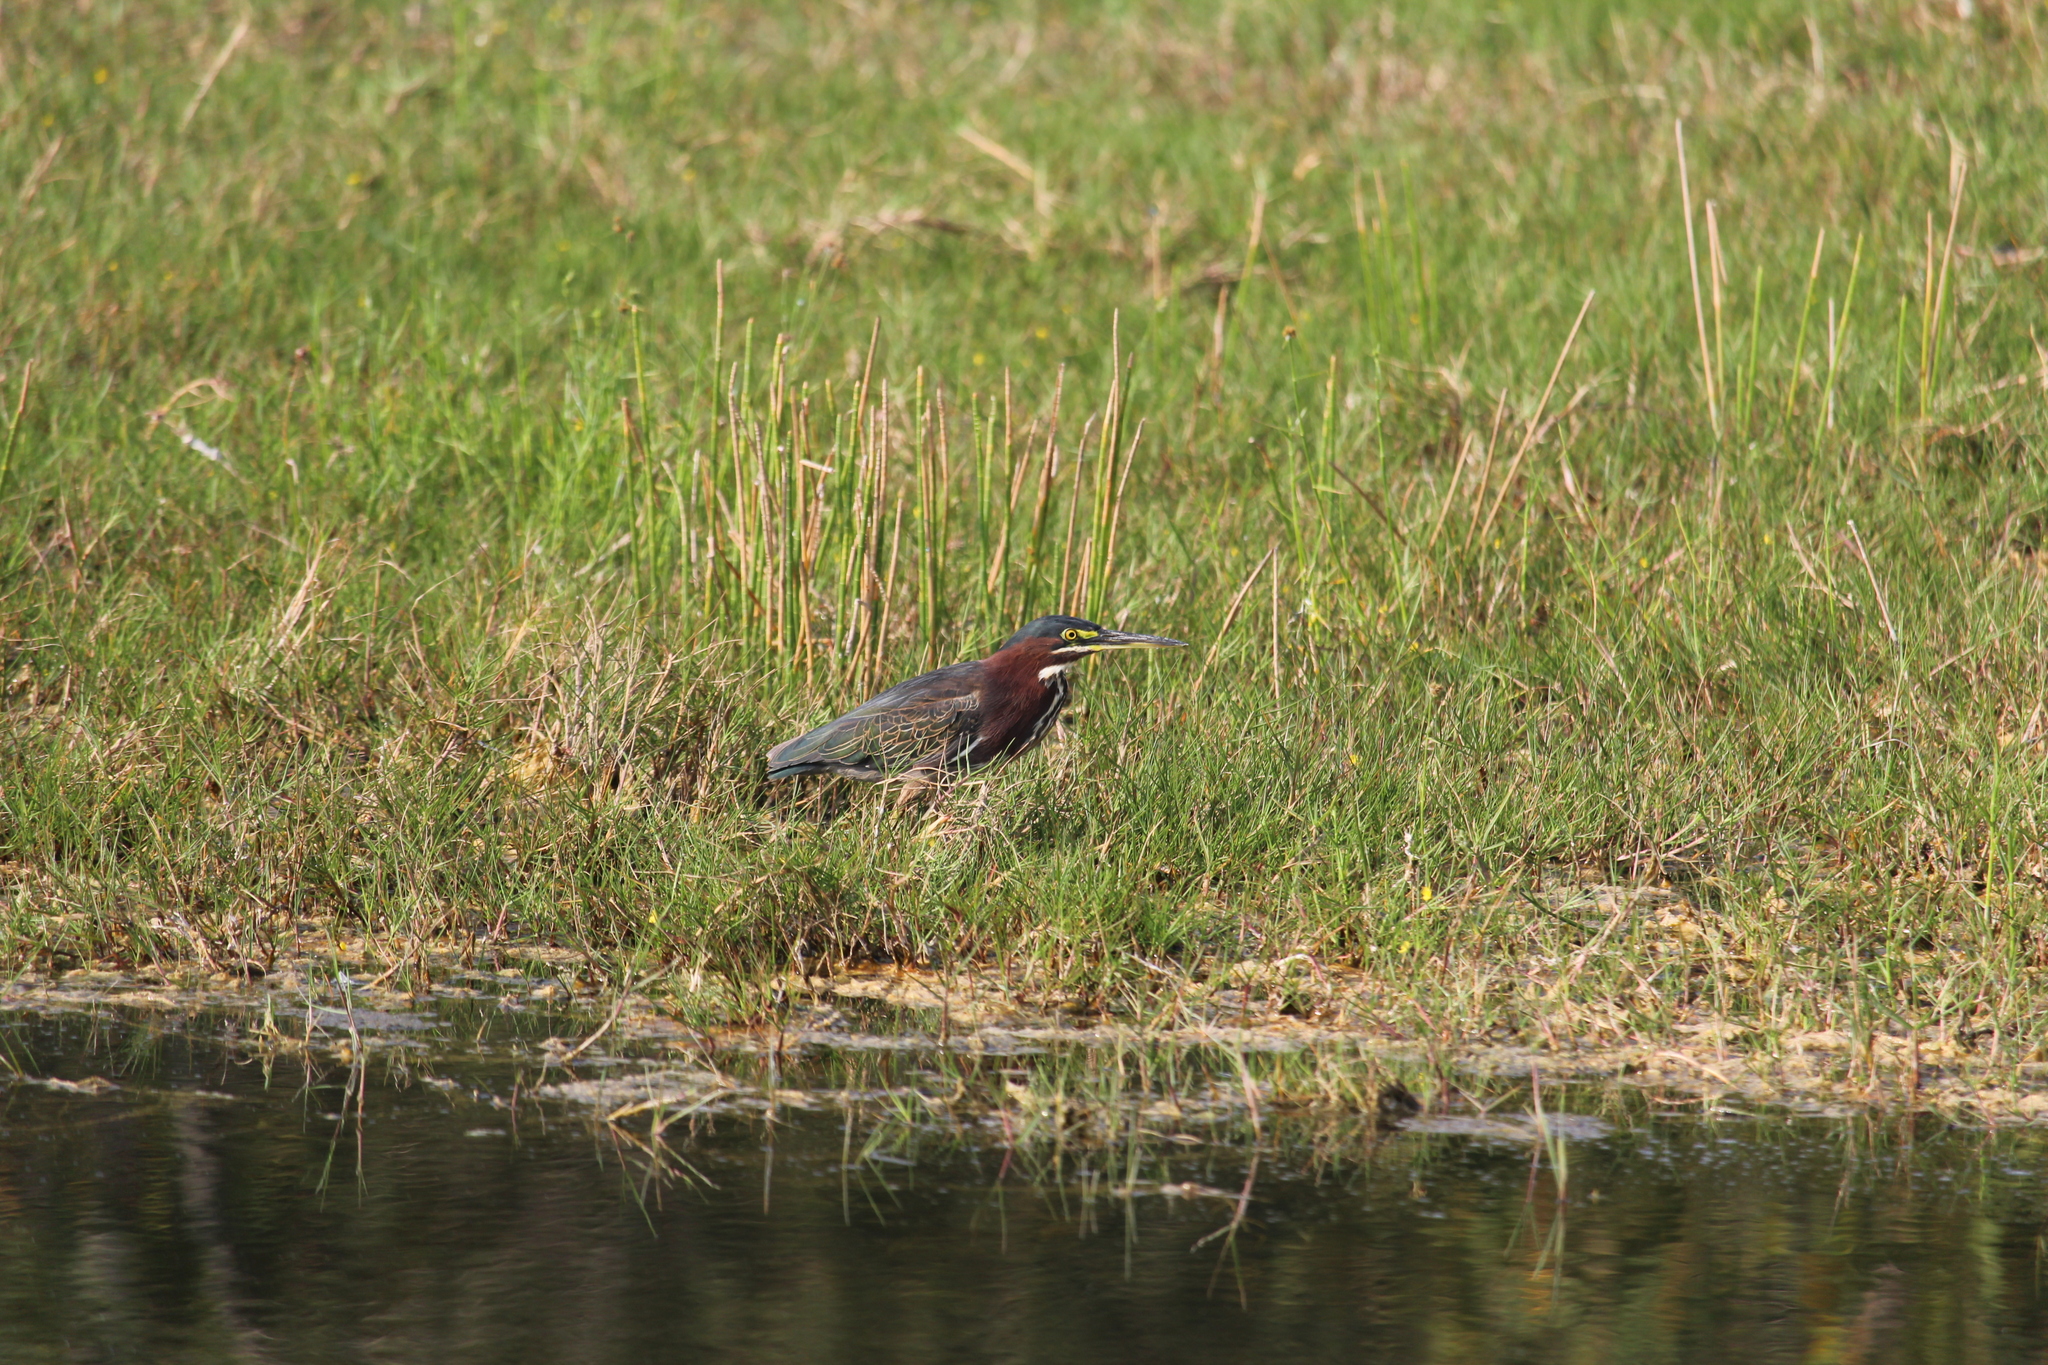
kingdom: Animalia
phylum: Chordata
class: Aves
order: Pelecaniformes
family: Ardeidae
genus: Butorides
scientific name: Butorides virescens
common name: Green heron
